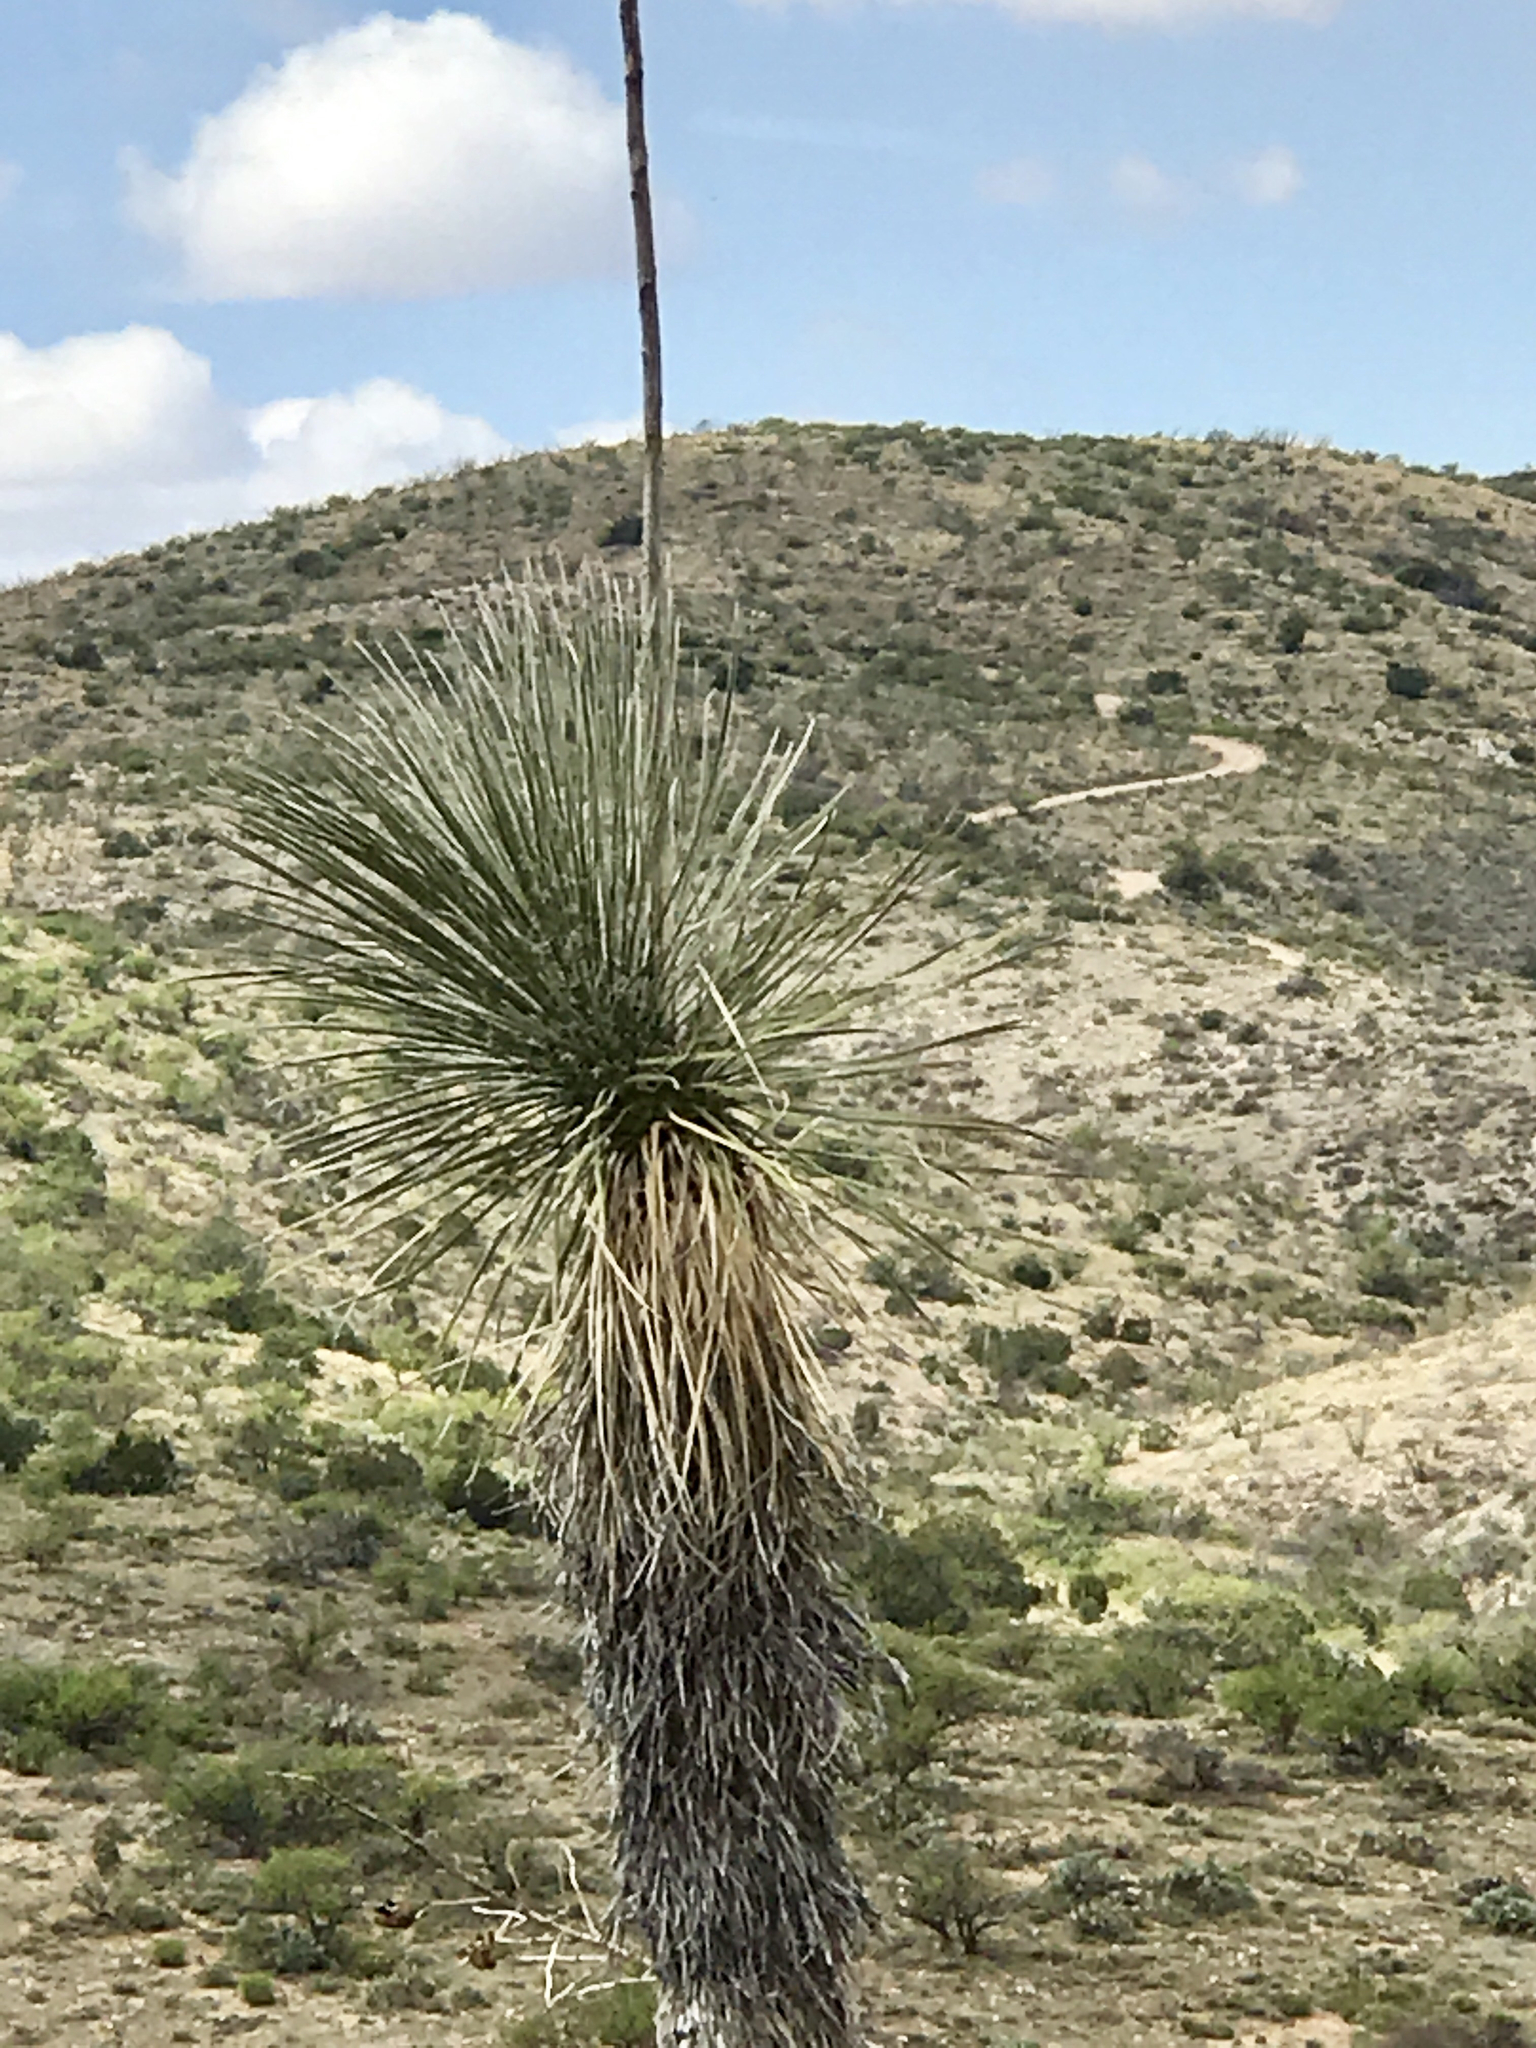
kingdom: Plantae
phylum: Tracheophyta
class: Liliopsida
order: Asparagales
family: Asparagaceae
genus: Yucca
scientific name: Yucca elata
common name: Palmella
